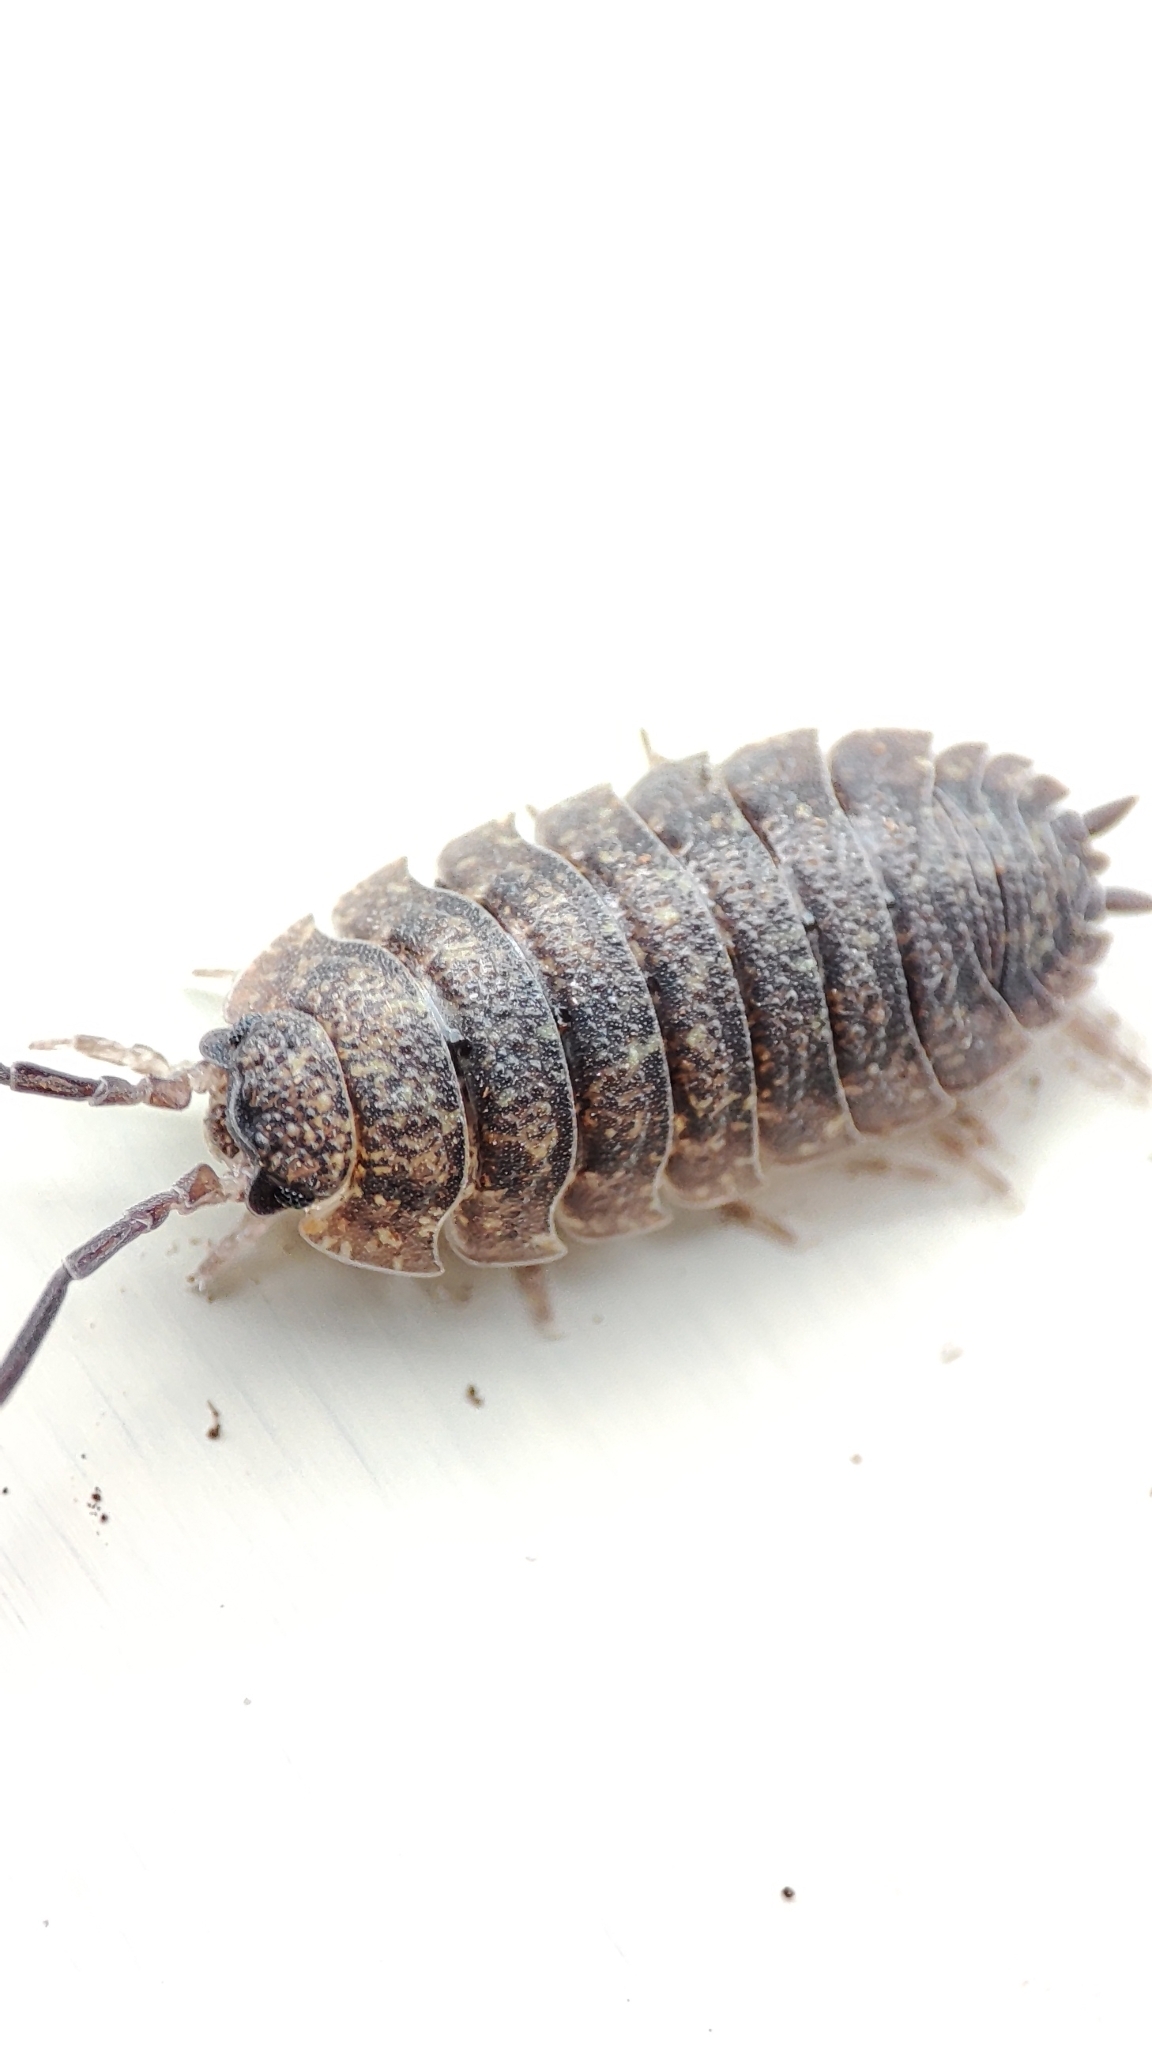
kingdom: Animalia
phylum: Arthropoda
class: Malacostraca
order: Isopoda
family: Porcellionidae
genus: Porcellio
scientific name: Porcellio scaber
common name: Common rough woodlouse
